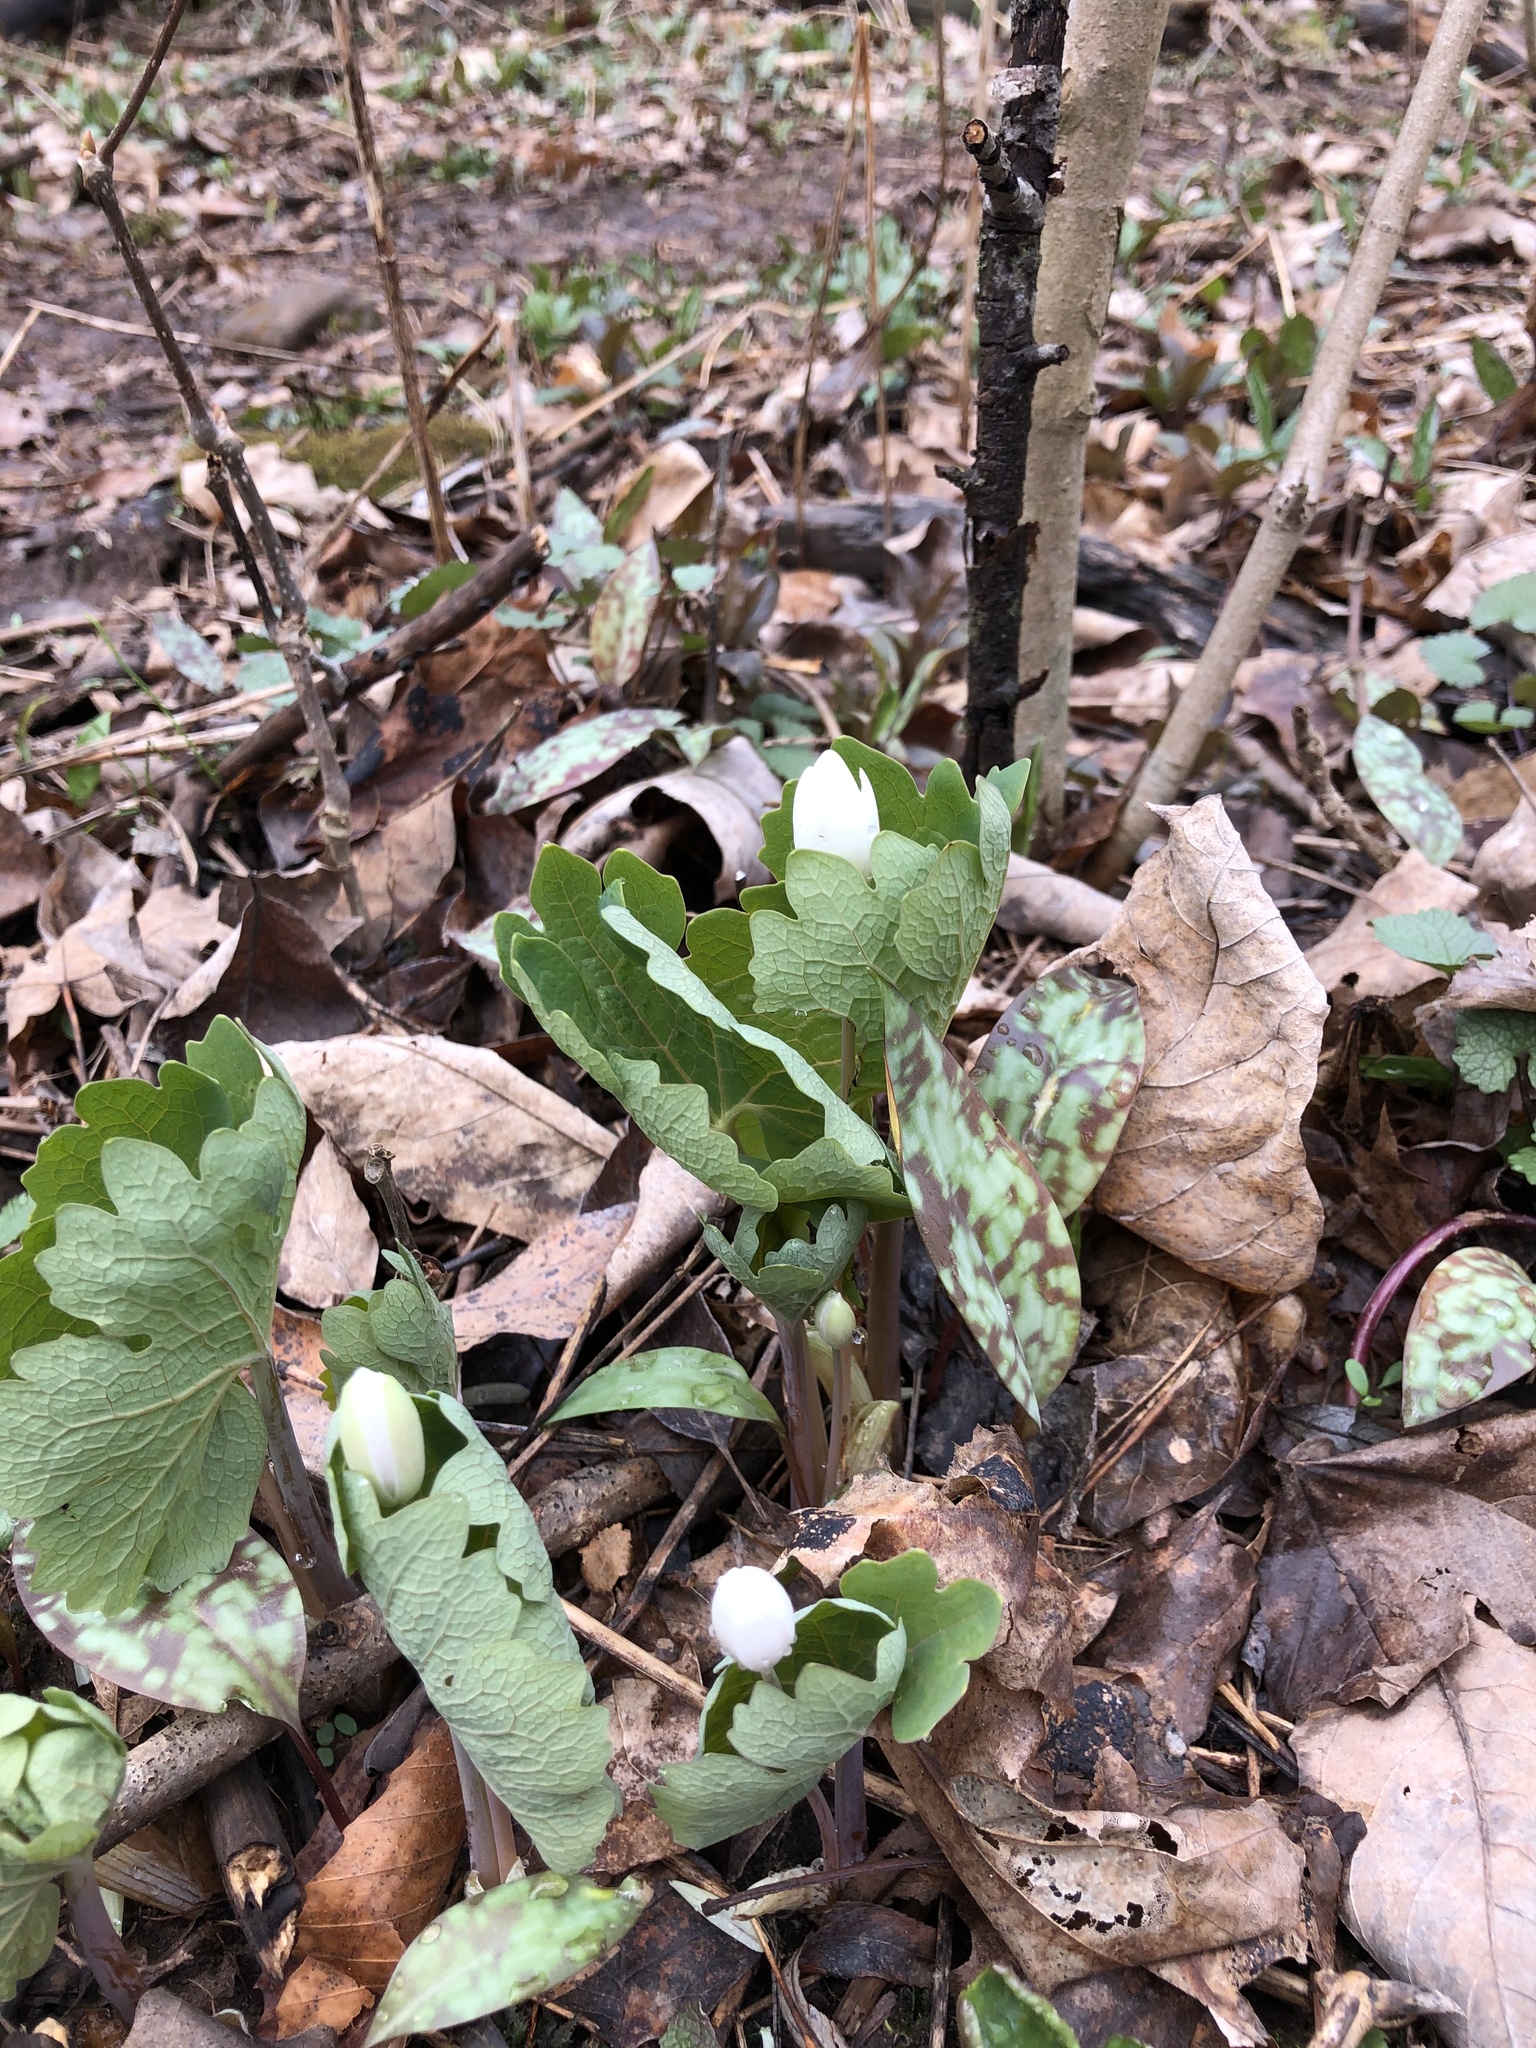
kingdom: Plantae
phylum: Tracheophyta
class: Magnoliopsida
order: Ranunculales
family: Papaveraceae
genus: Sanguinaria
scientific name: Sanguinaria canadensis
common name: Bloodroot
